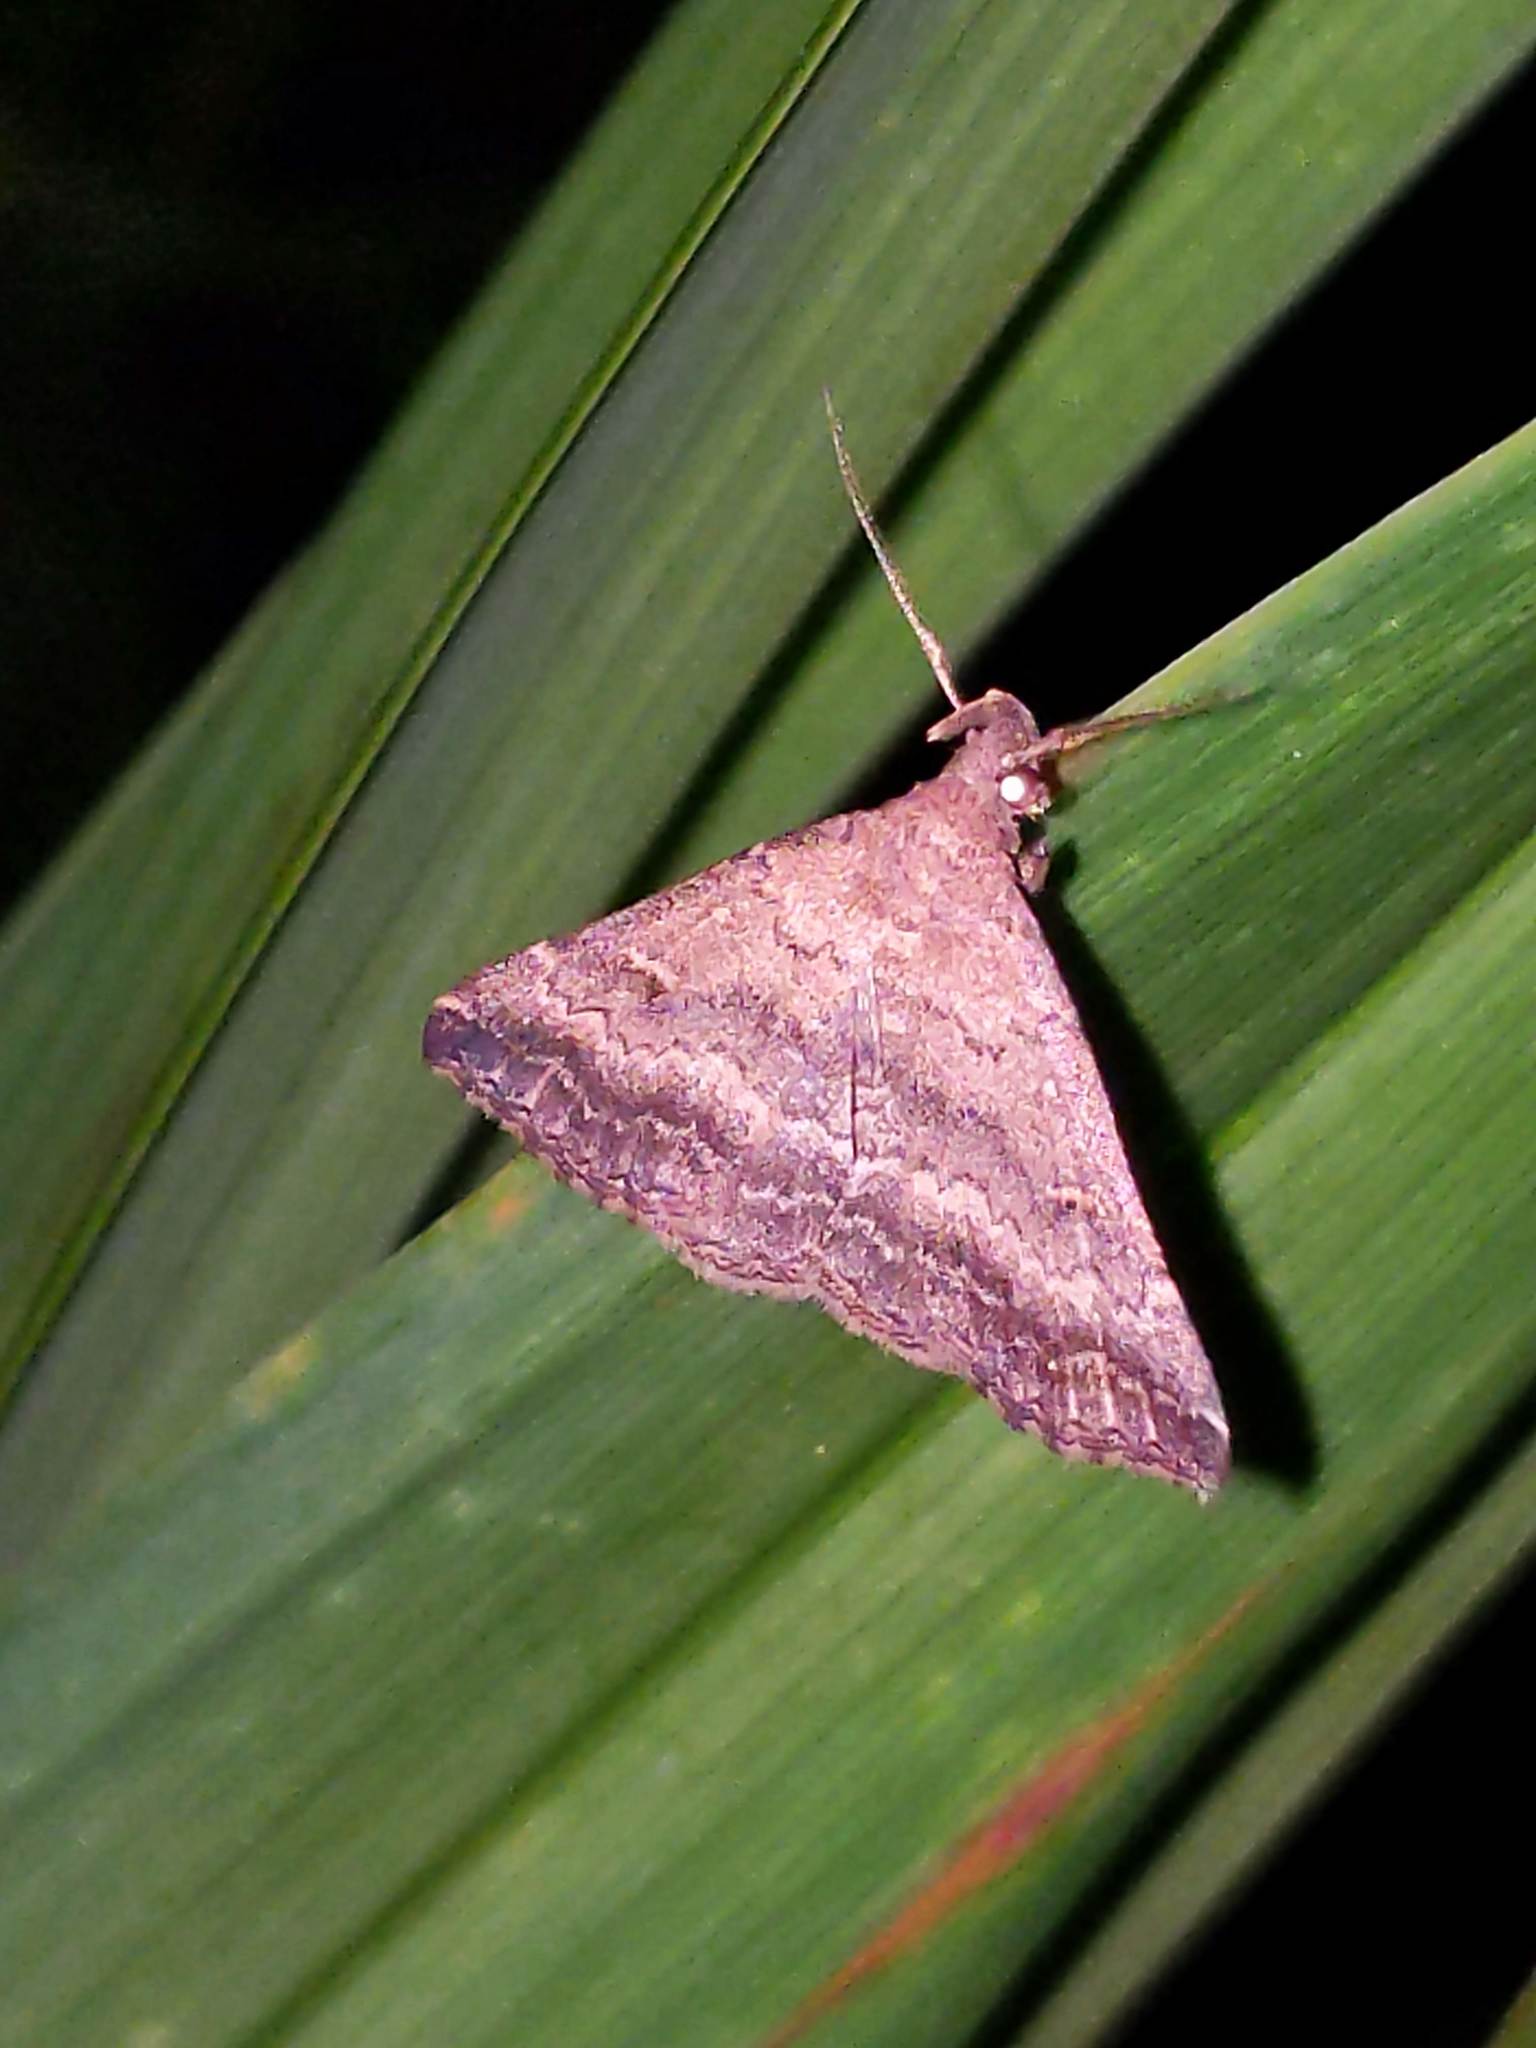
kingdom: Animalia
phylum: Arthropoda
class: Insecta
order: Lepidoptera
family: Erebidae
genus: Tetanolita
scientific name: Tetanolita floridana
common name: Florida tetanolita moth
